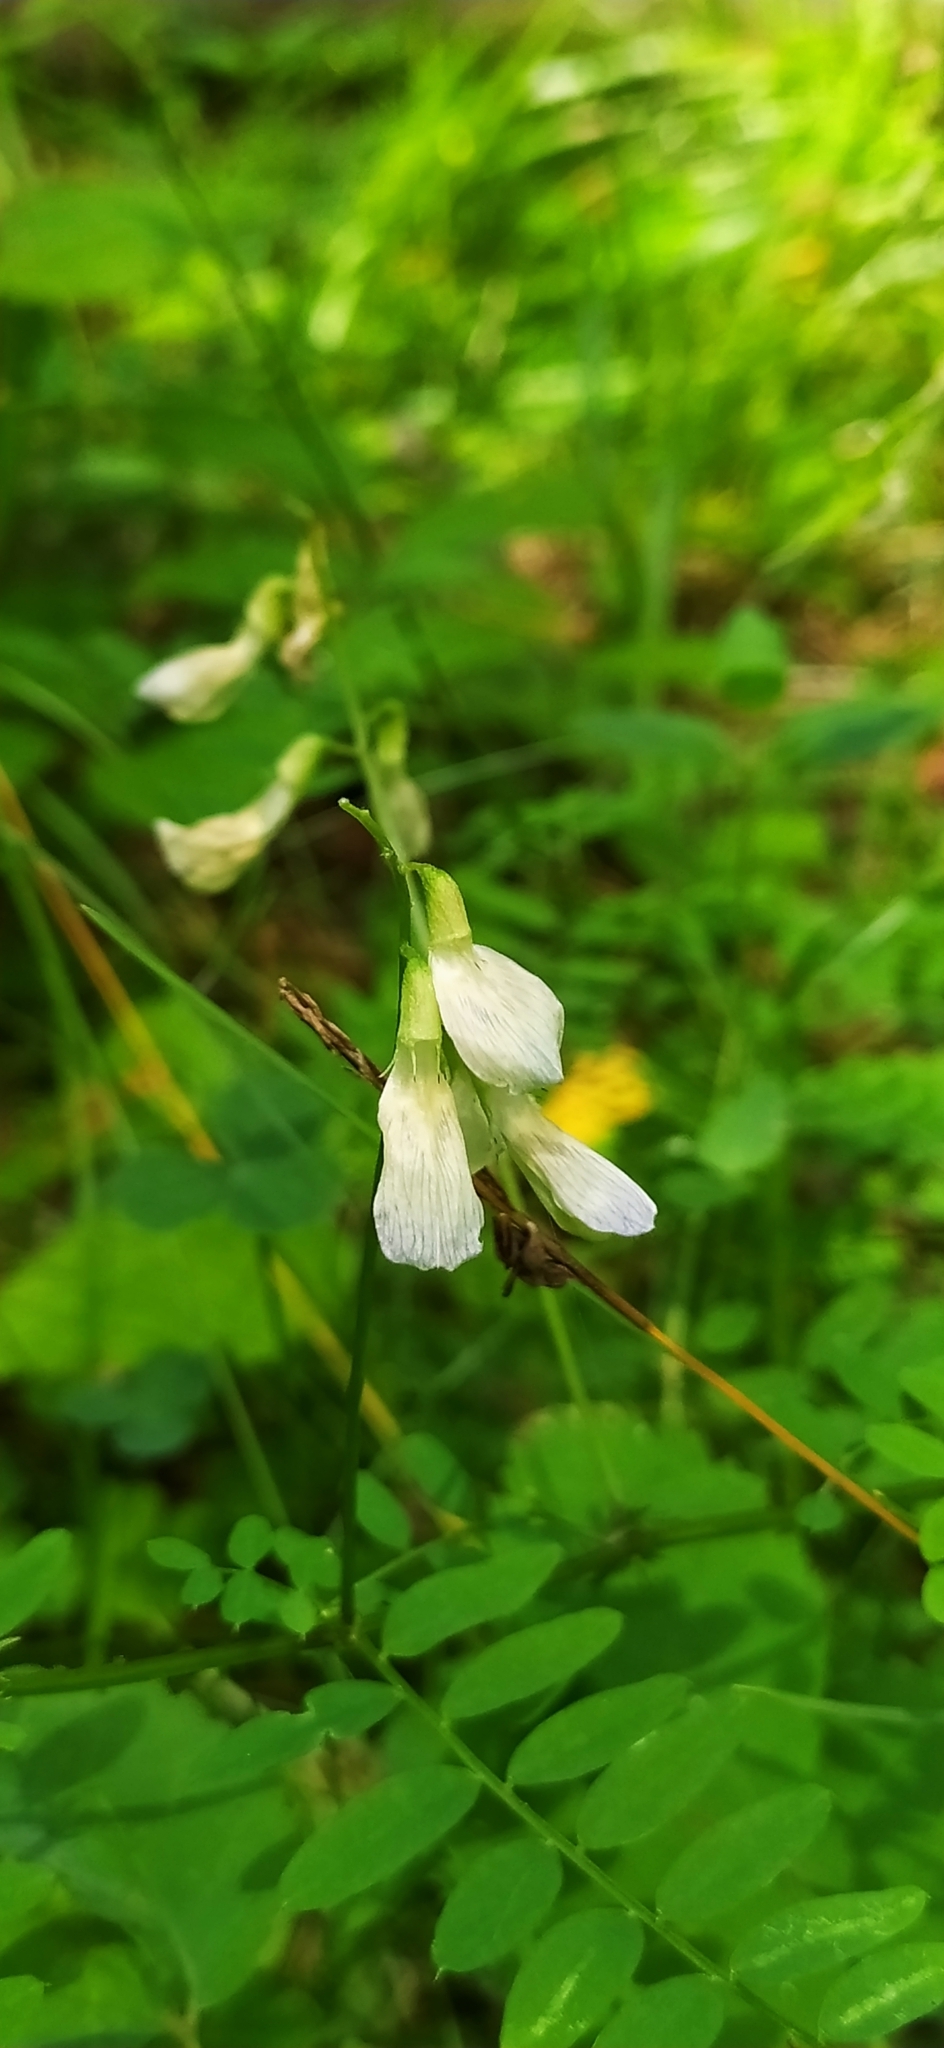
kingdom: Plantae
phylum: Tracheophyta
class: Magnoliopsida
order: Fabales
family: Fabaceae
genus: Vicia
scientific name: Vicia sylvatica
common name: Wood vetch
